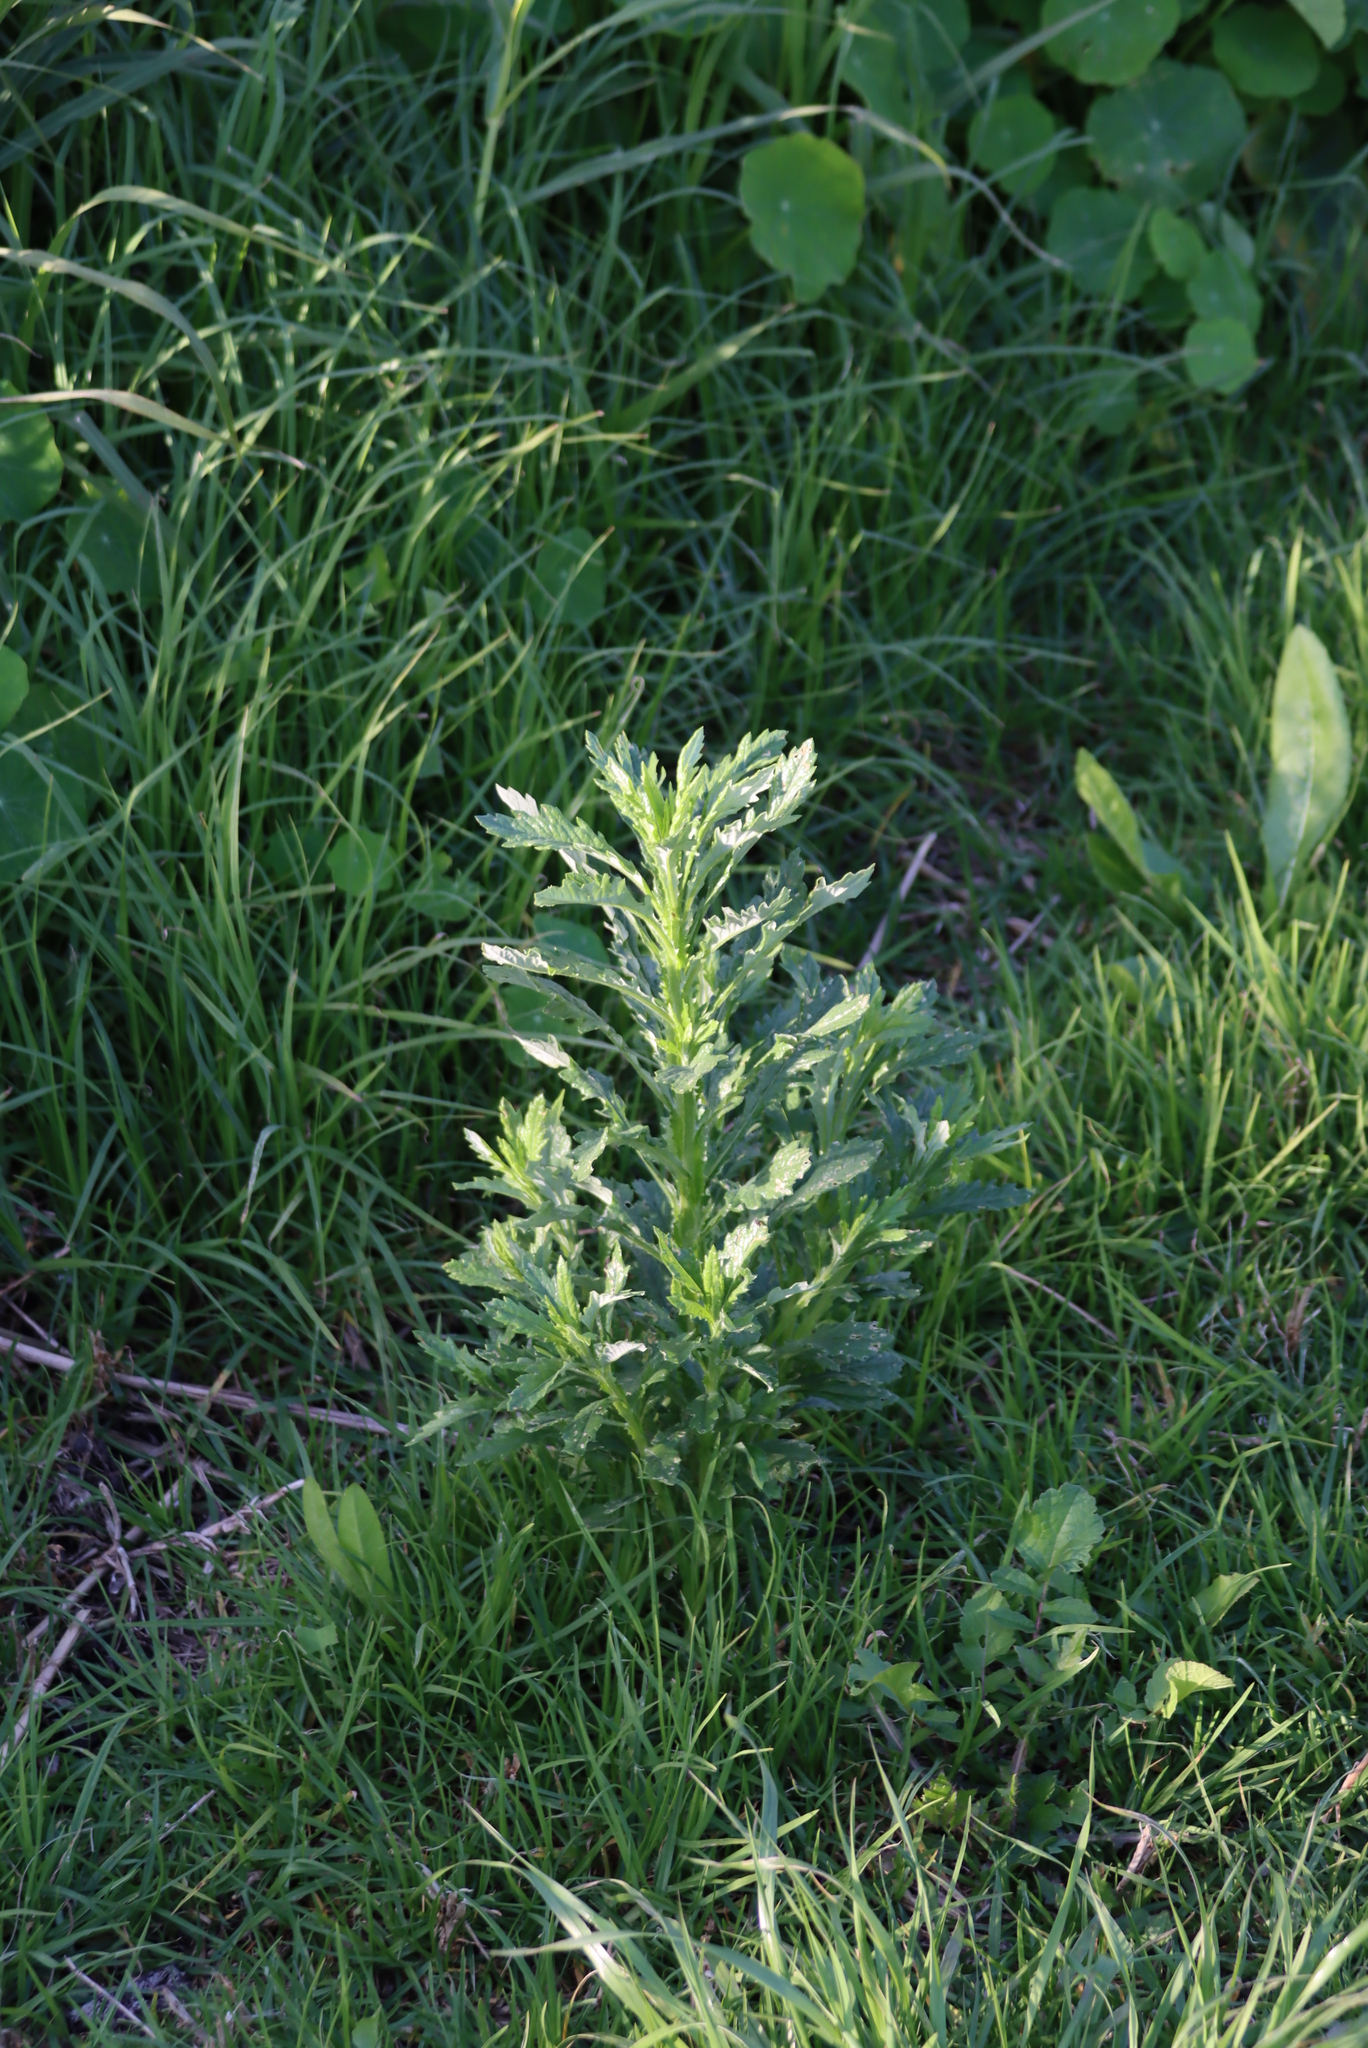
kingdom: Plantae
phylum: Tracheophyta
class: Magnoliopsida
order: Asterales
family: Asteraceae
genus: Senecio
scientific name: Senecio pterophorus
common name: Shoddy ragwort
